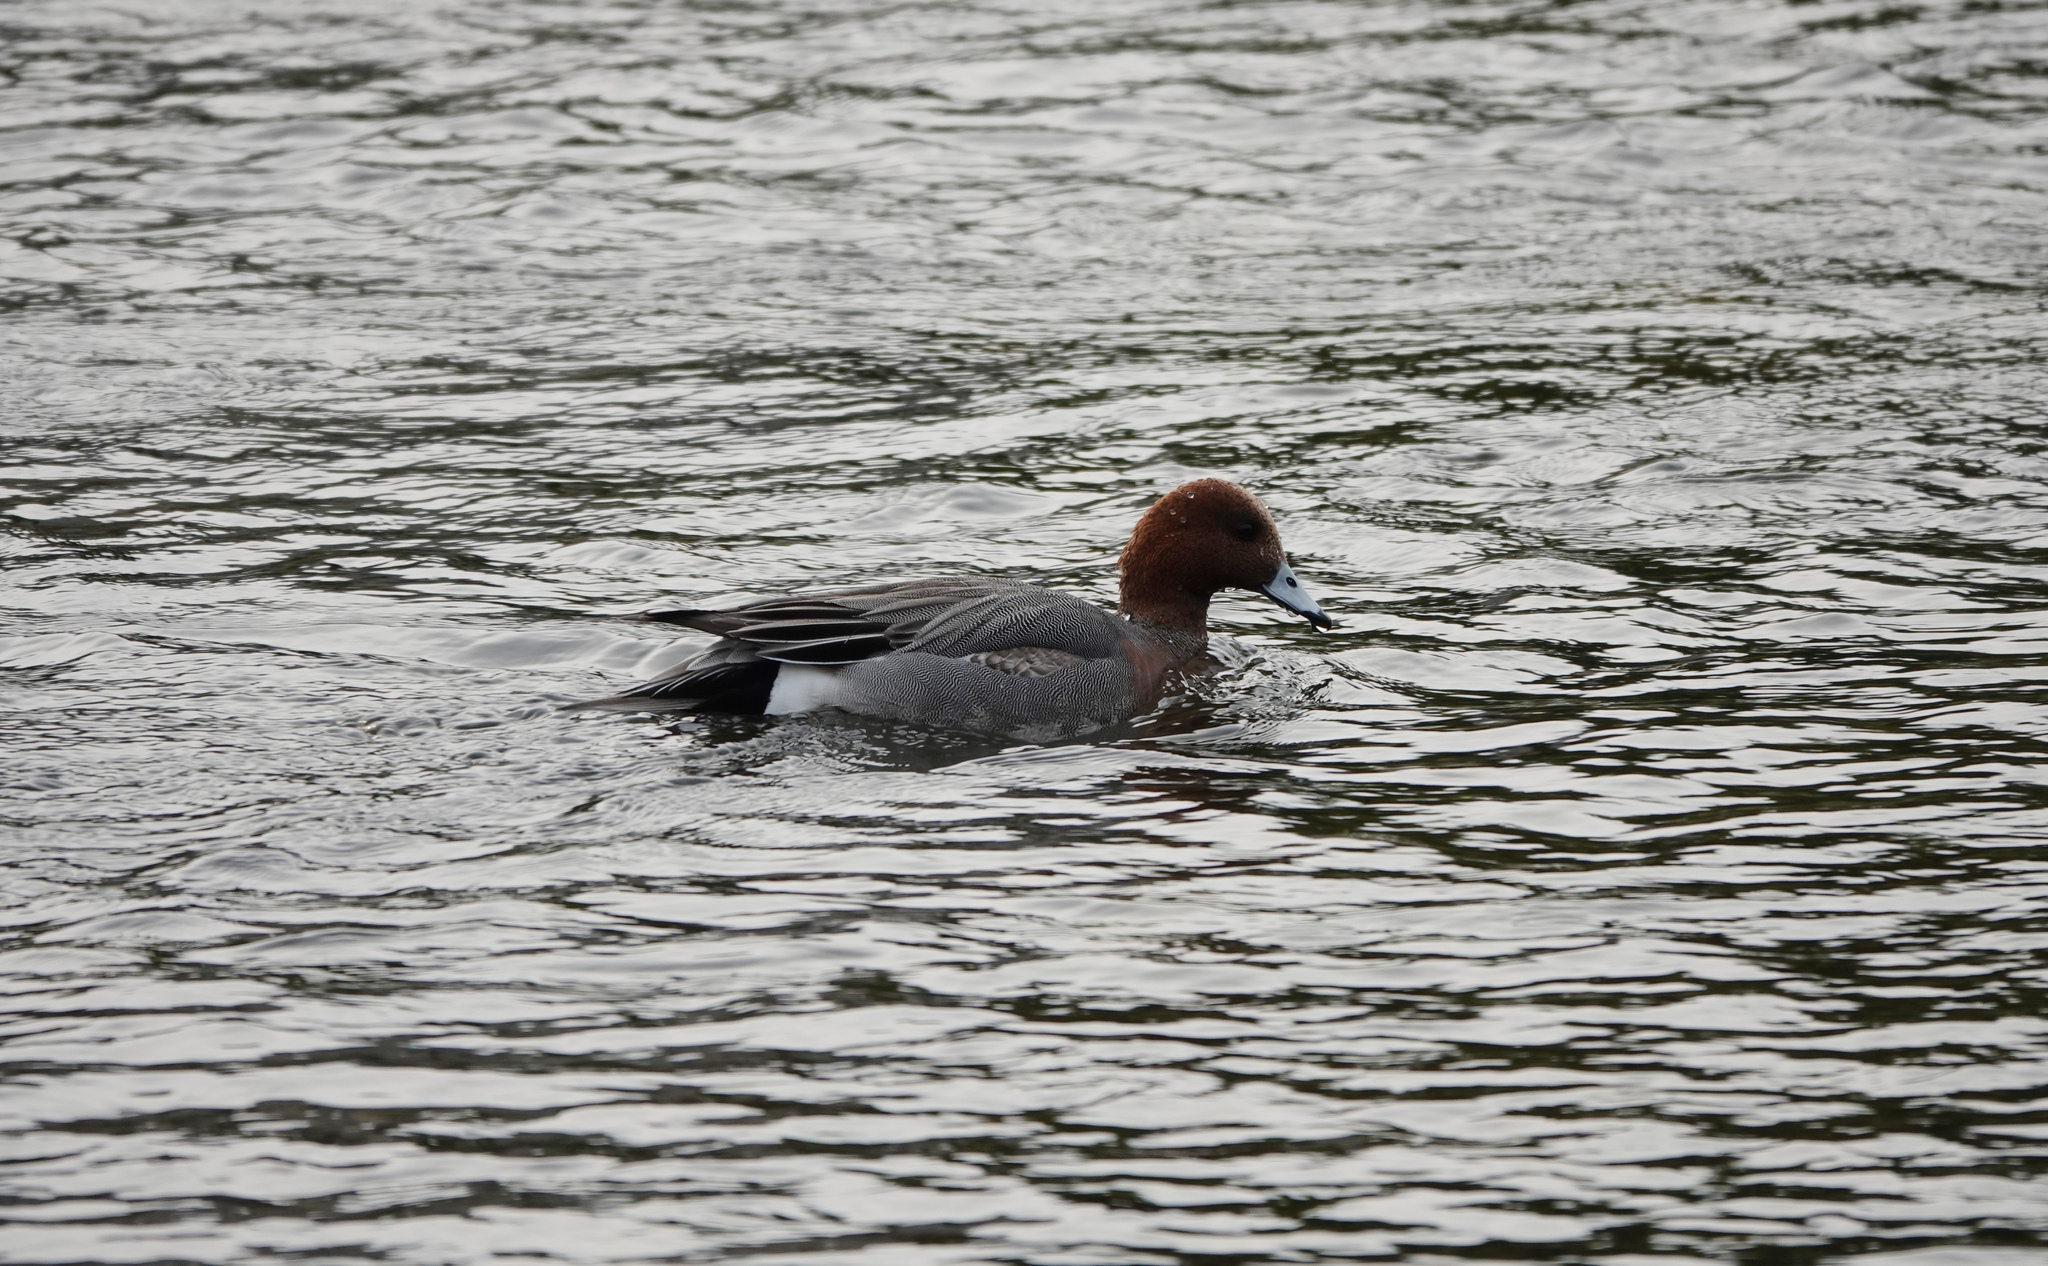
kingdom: Animalia
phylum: Chordata
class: Aves
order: Anseriformes
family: Anatidae
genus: Mareca
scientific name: Mareca penelope
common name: Eurasian wigeon
